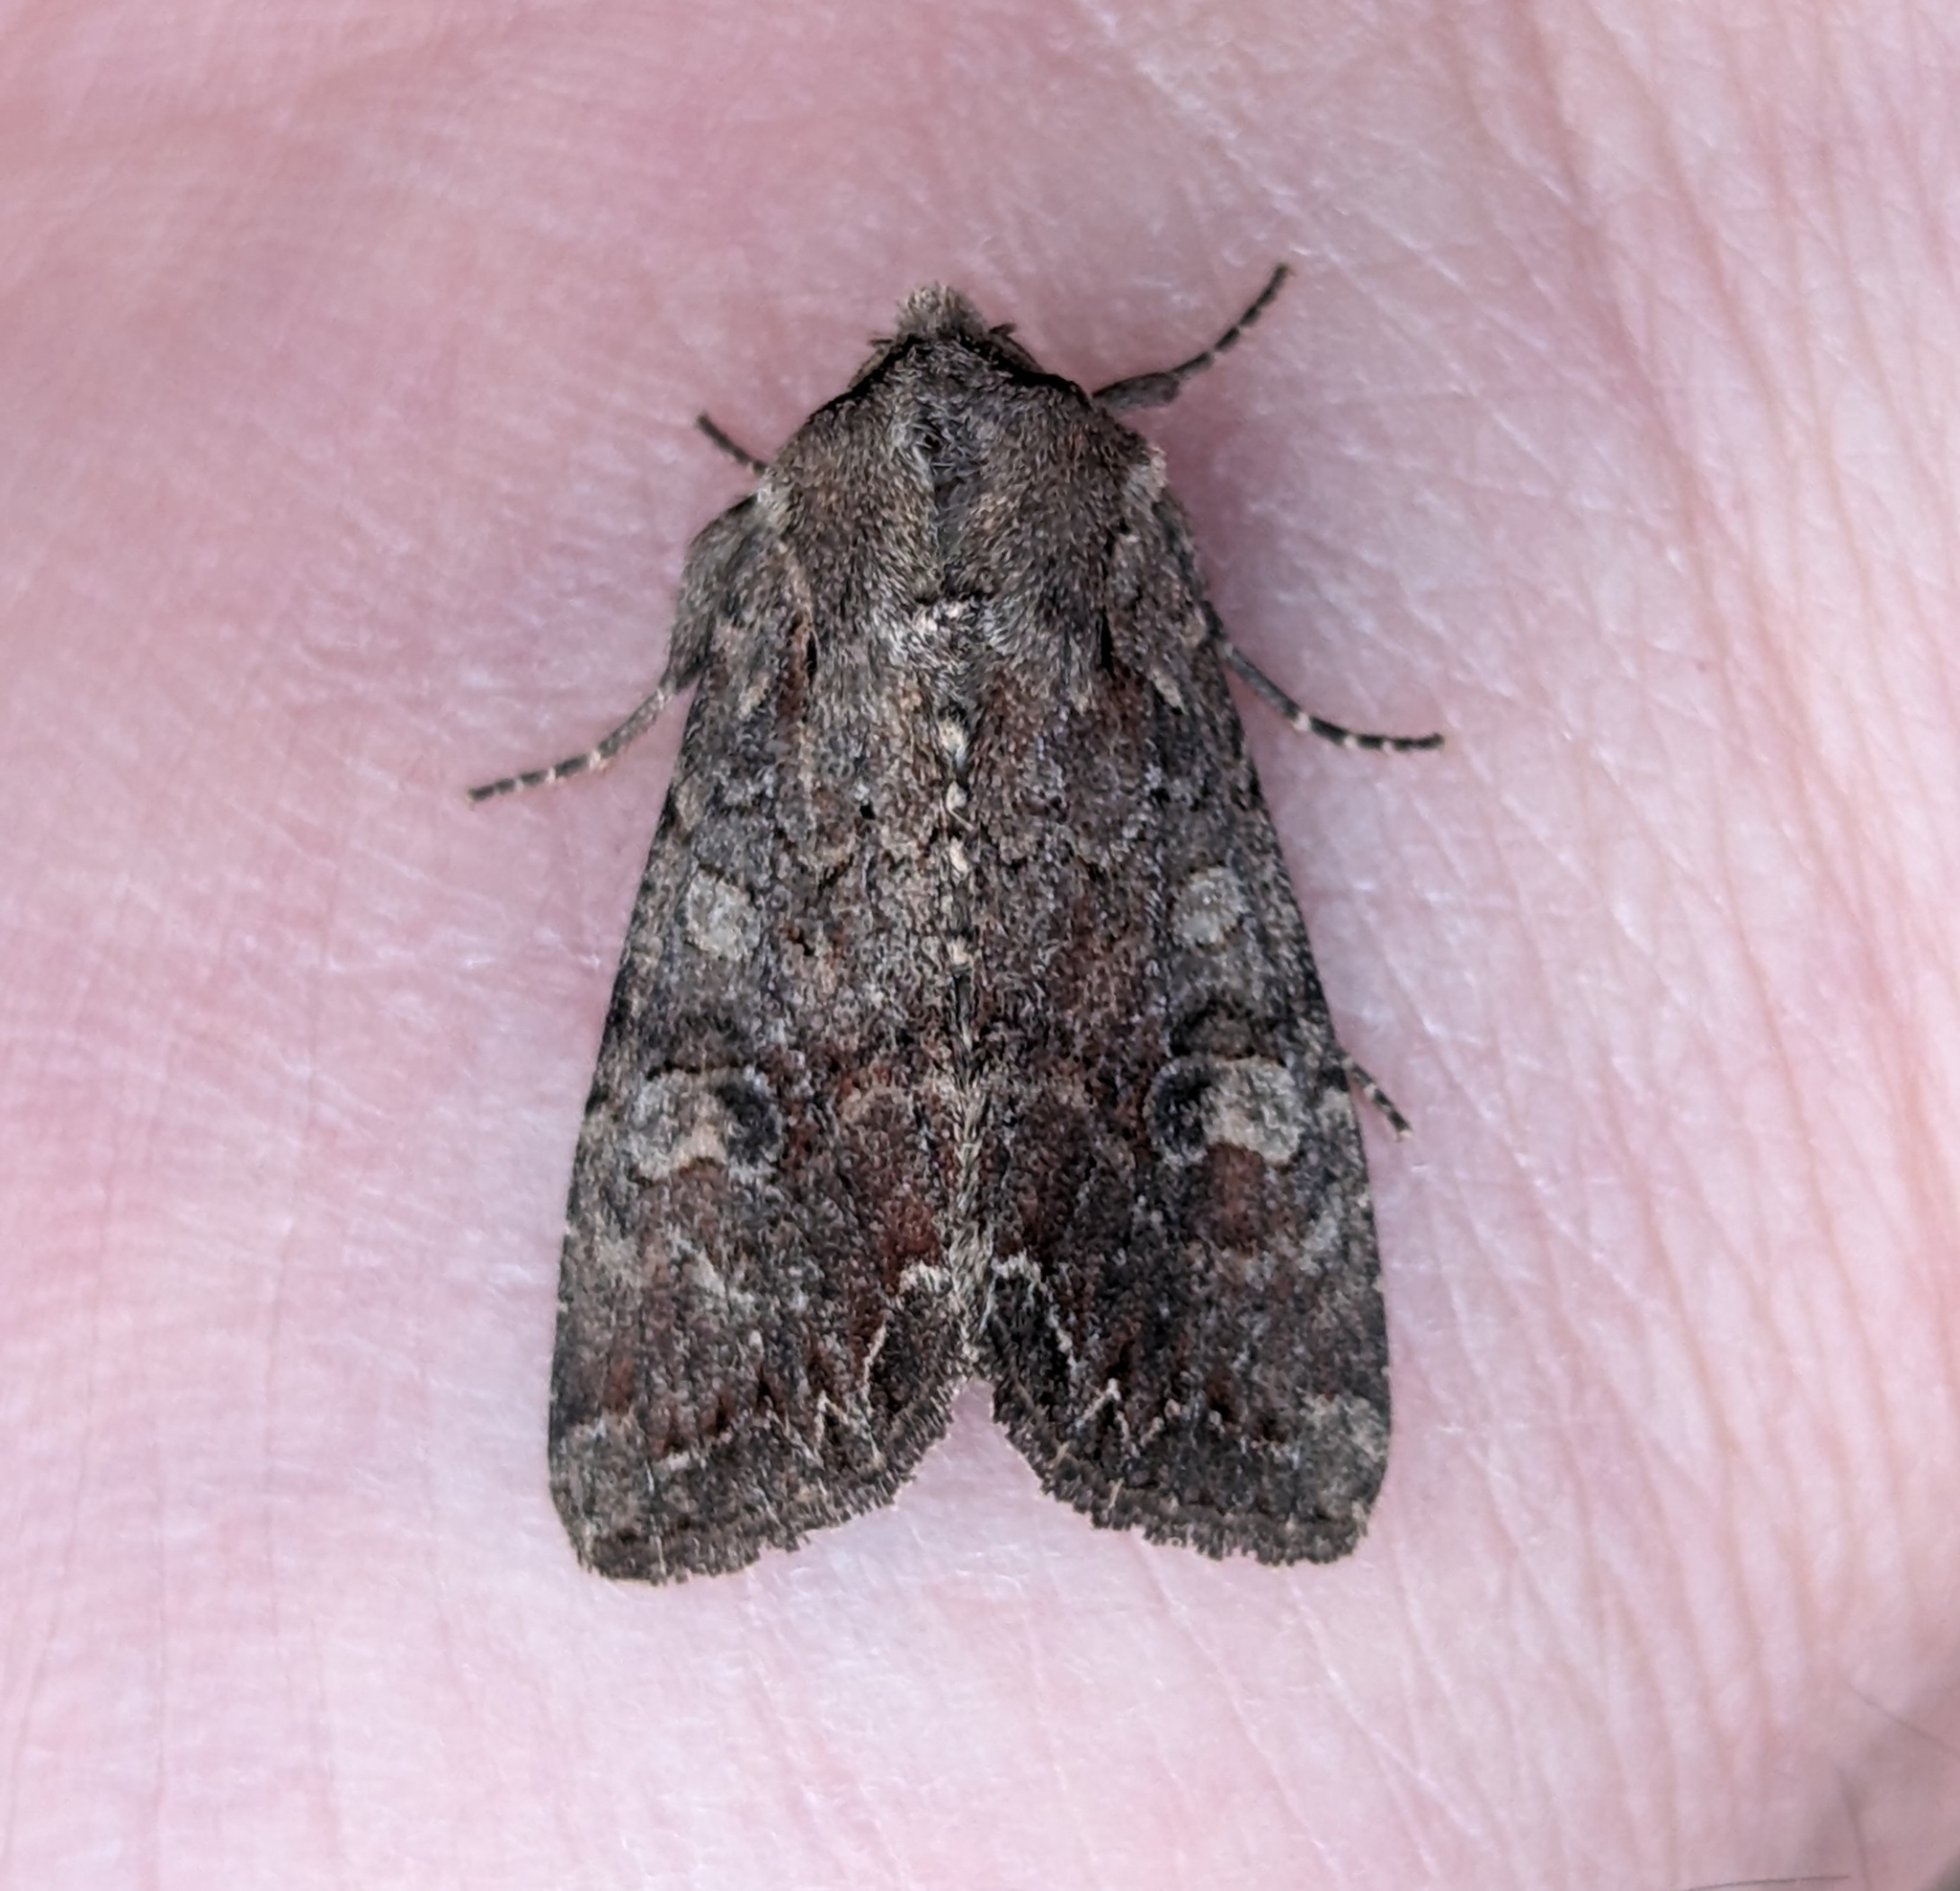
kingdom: Animalia
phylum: Arthropoda
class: Insecta
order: Lepidoptera
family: Noctuidae
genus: Lacanobia
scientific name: Lacanobia radix
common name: Garden arches moth
